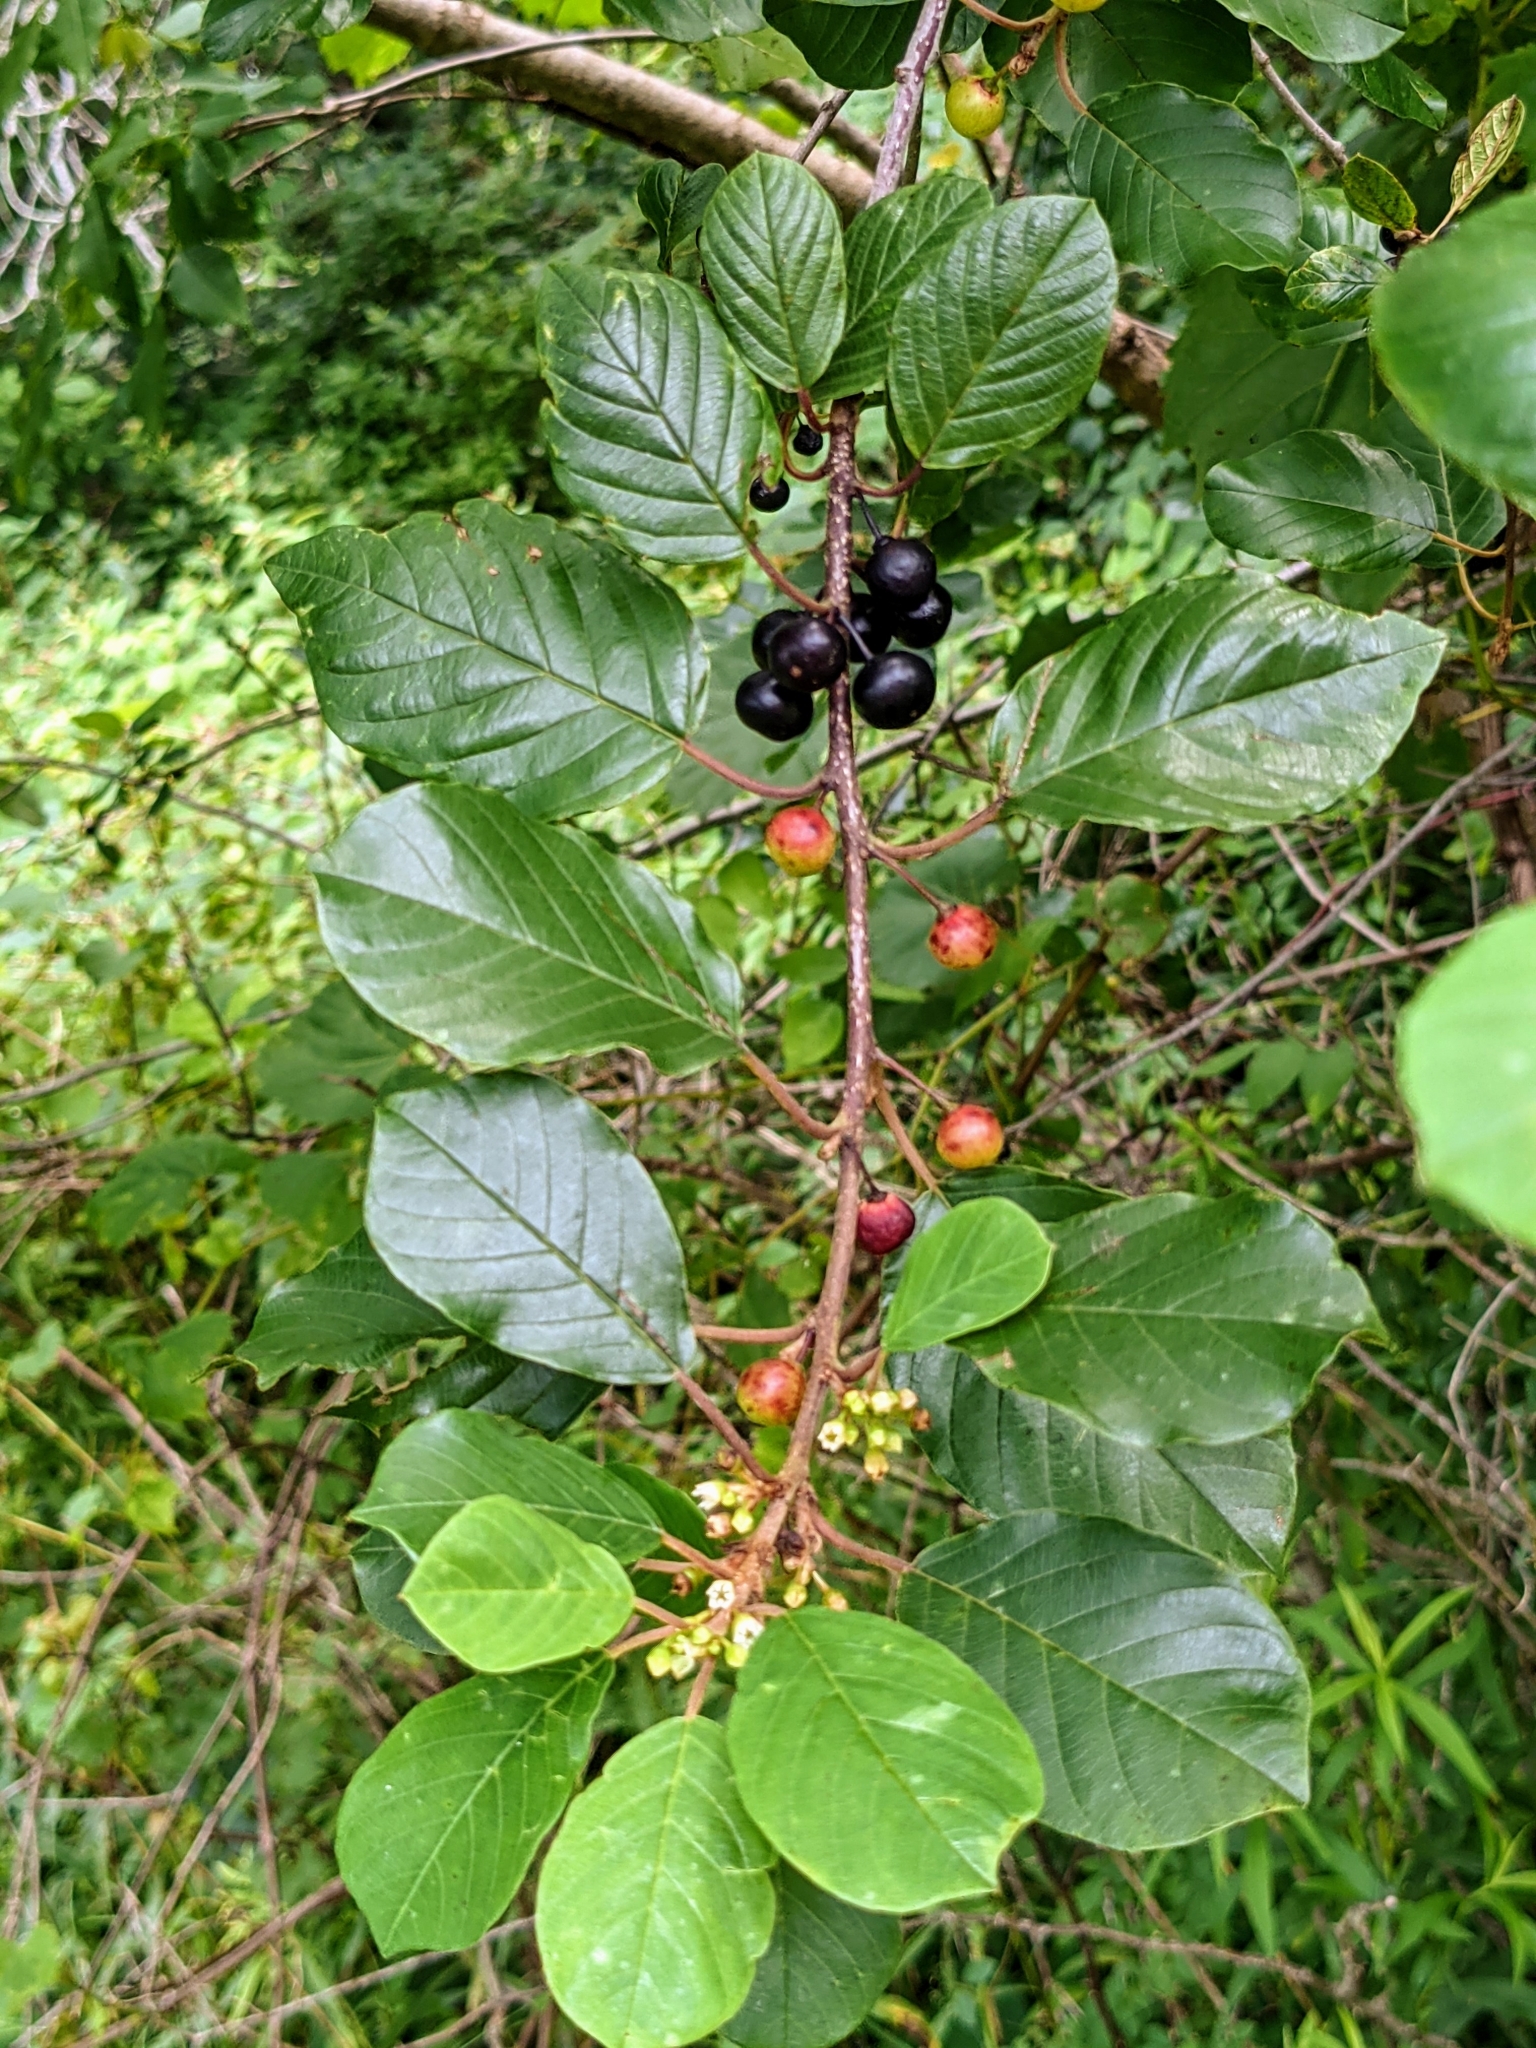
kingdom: Plantae
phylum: Tracheophyta
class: Magnoliopsida
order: Rosales
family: Rhamnaceae
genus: Frangula
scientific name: Frangula alnus
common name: Alder buckthorn
